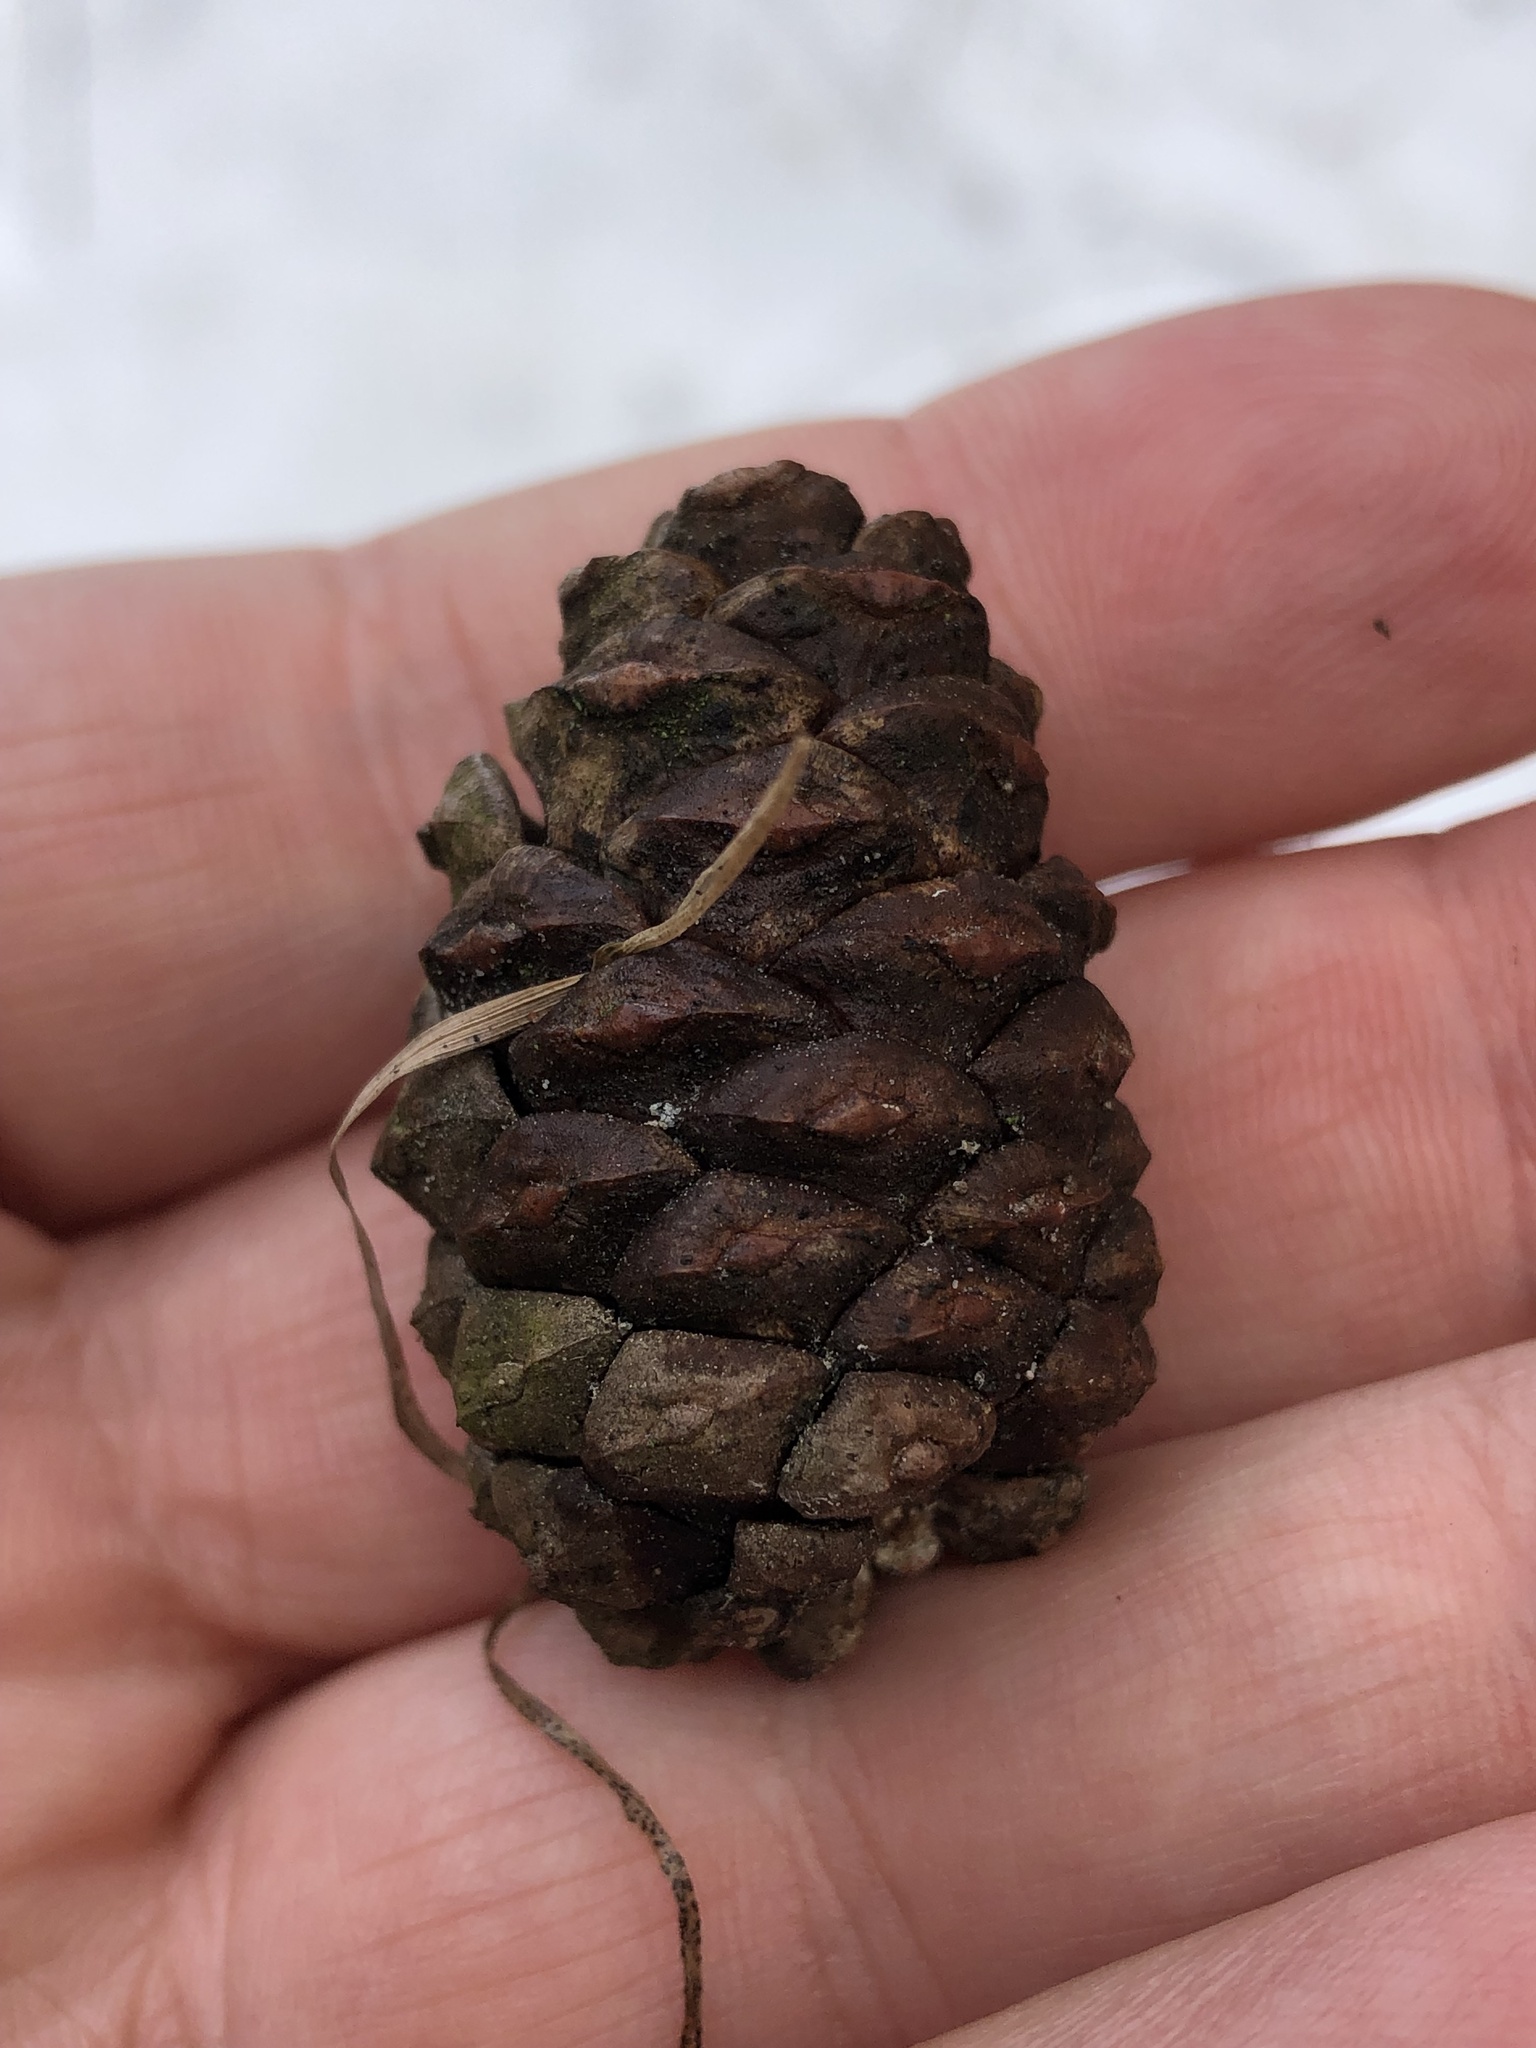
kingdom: Plantae
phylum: Tracheophyta
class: Pinopsida
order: Pinales
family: Pinaceae
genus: Pinus
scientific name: Pinus resinosa
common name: Norway pine
